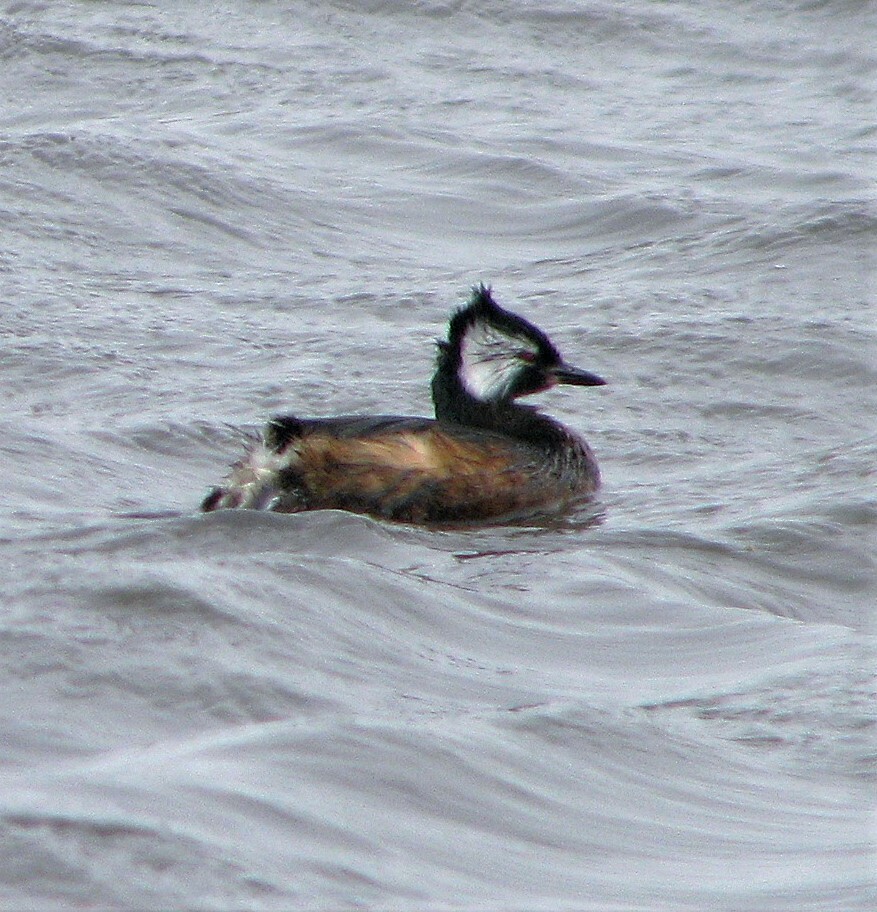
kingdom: Animalia
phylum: Chordata
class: Aves
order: Podicipediformes
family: Podicipedidae
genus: Rollandia
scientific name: Rollandia rolland
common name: White-tufted grebe
